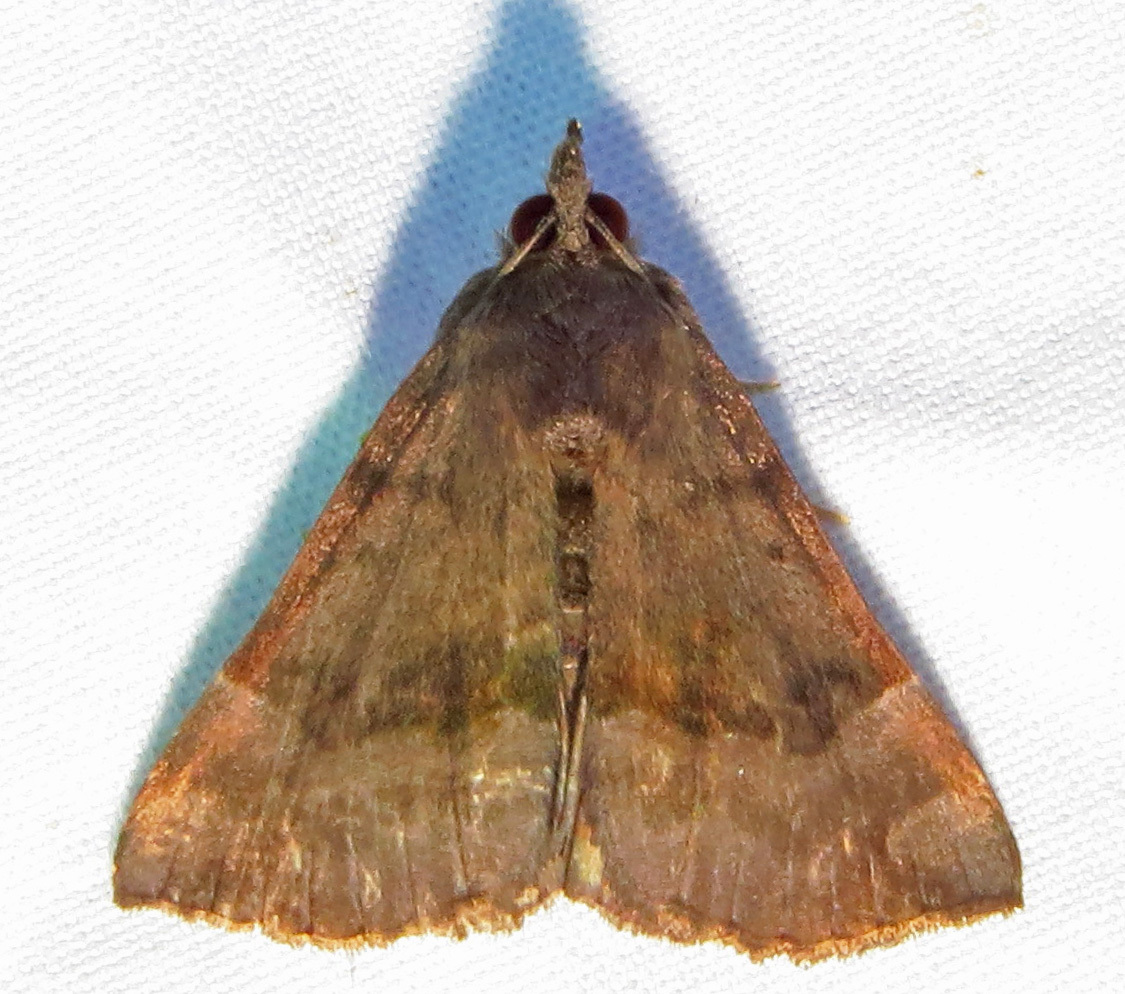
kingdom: Animalia
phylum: Arthropoda
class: Insecta
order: Lepidoptera
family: Erebidae
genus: Hypena
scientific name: Hypena madefactalis
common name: Gray-edged snout
